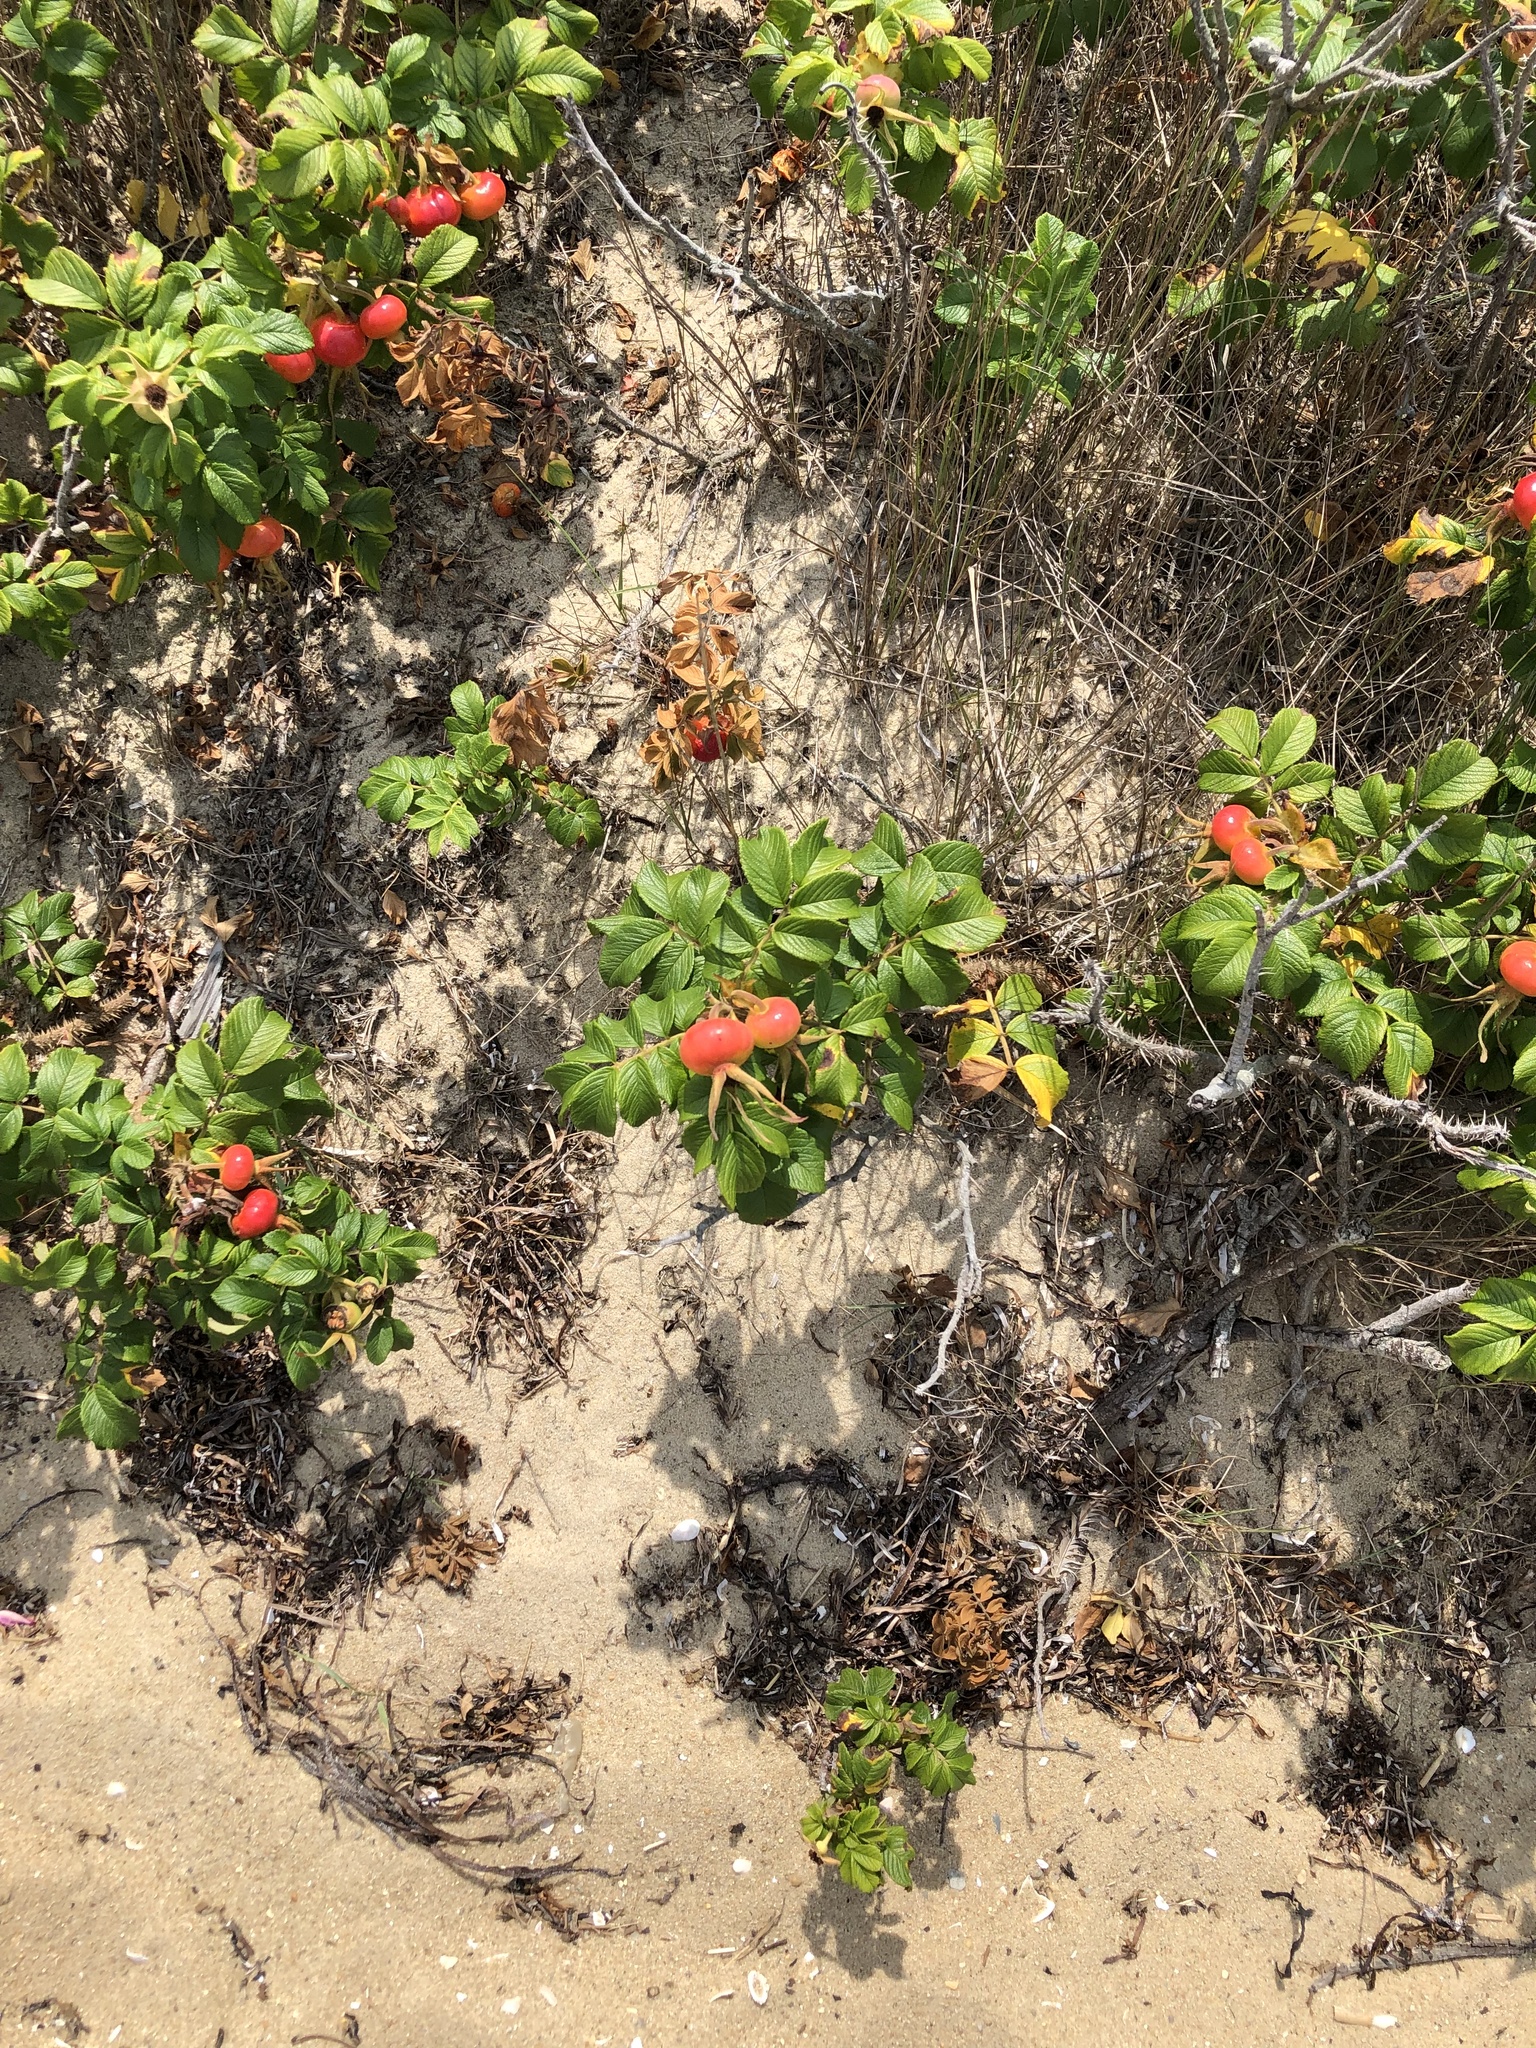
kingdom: Plantae
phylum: Tracheophyta
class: Magnoliopsida
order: Rosales
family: Rosaceae
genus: Rosa
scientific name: Rosa rugosa
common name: Japanese rose
